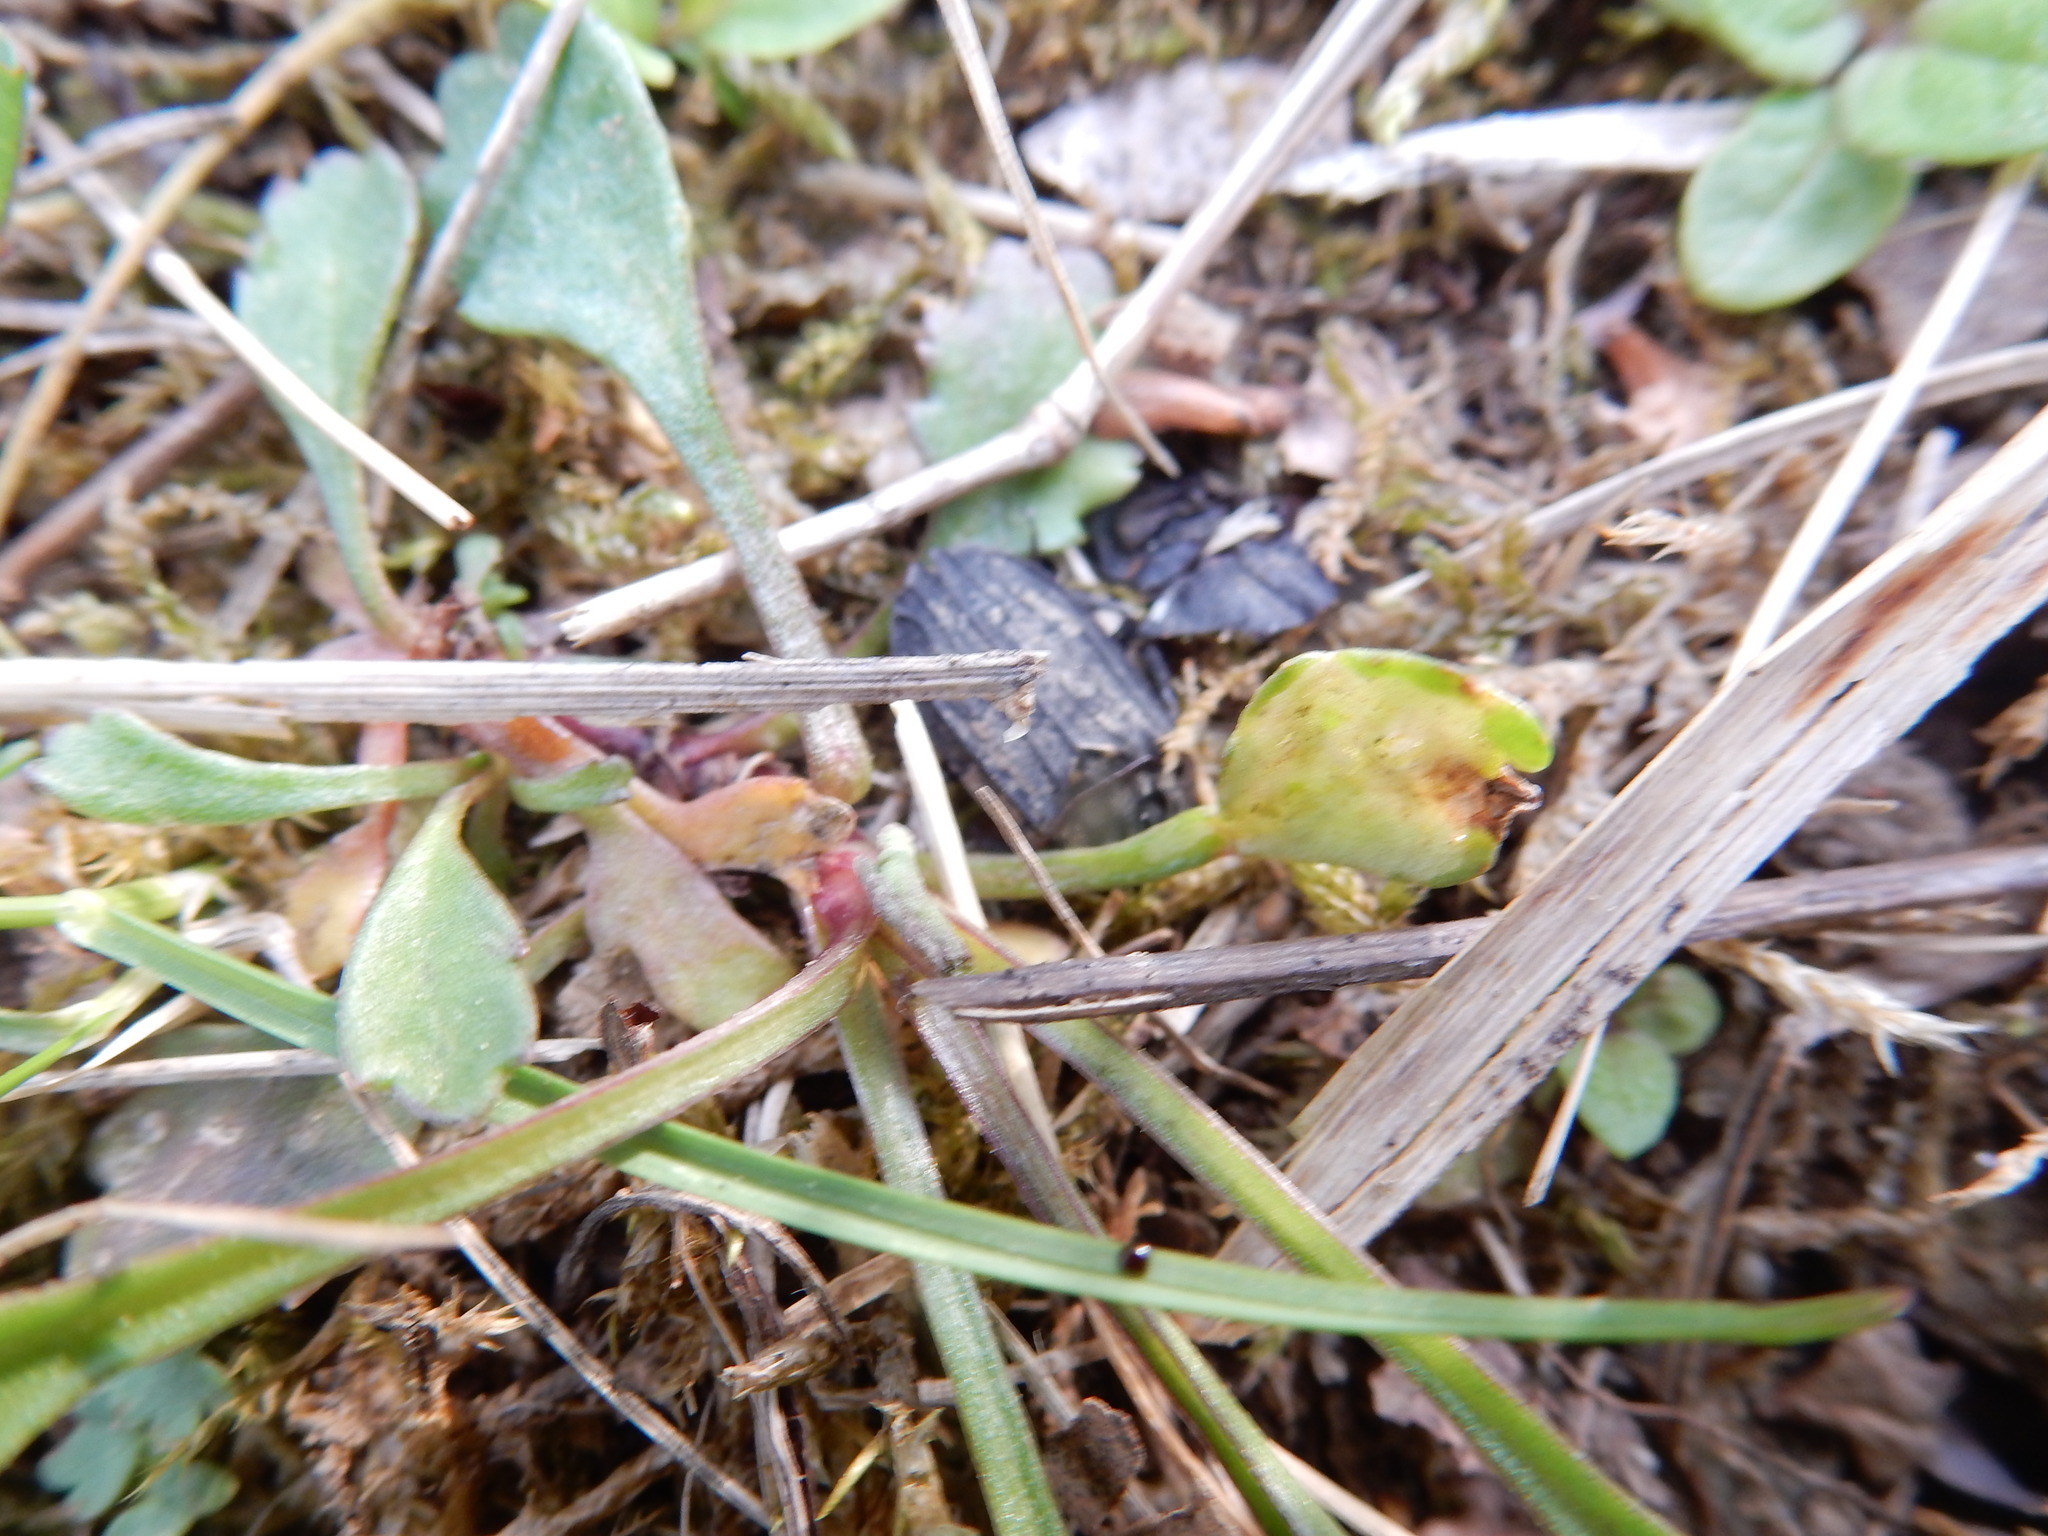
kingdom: Animalia
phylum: Arthropoda
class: Insecta
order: Coleoptera
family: Staphylinidae
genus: Thanatophilus
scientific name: Thanatophilus rugosus
